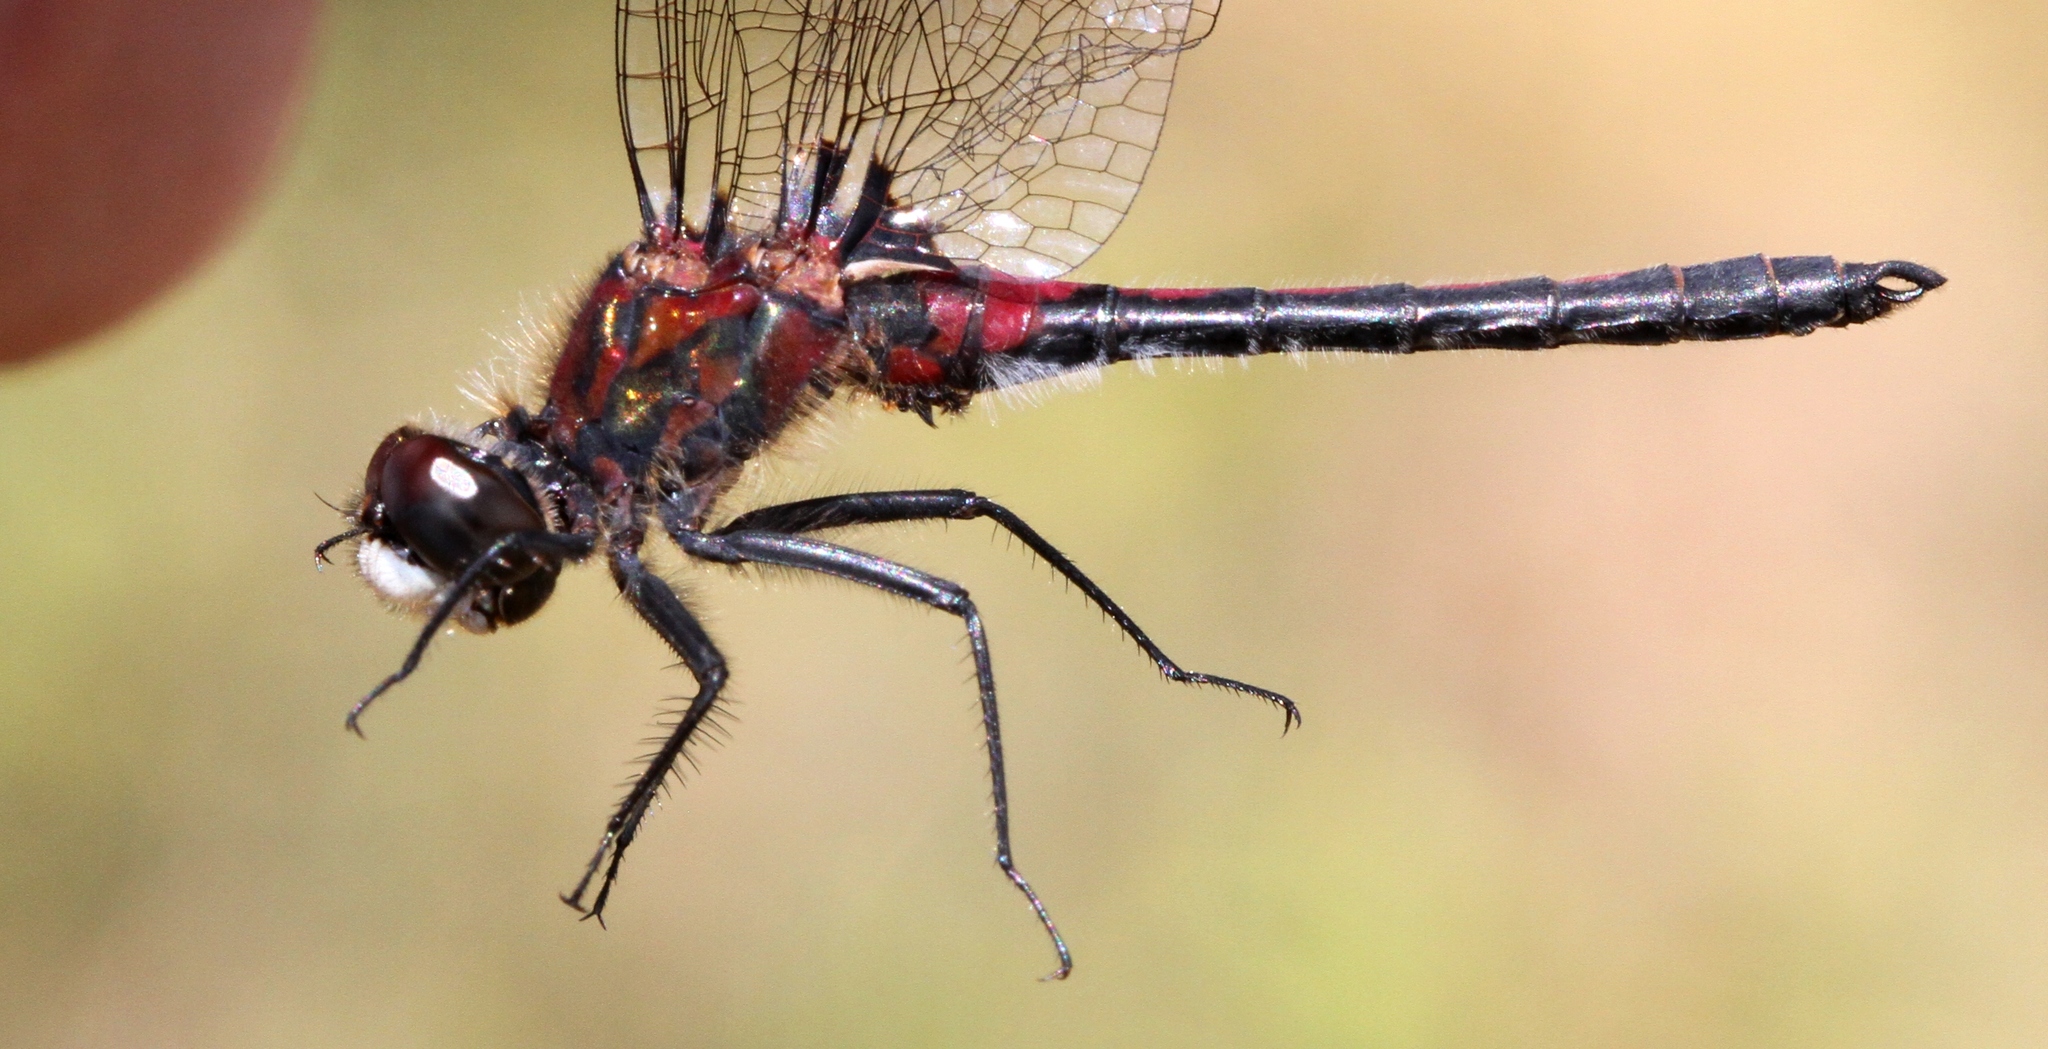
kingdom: Animalia
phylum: Arthropoda
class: Insecta
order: Odonata
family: Libellulidae
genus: Leucorrhinia
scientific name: Leucorrhinia hudsonica
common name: Hudsonian whiteface
